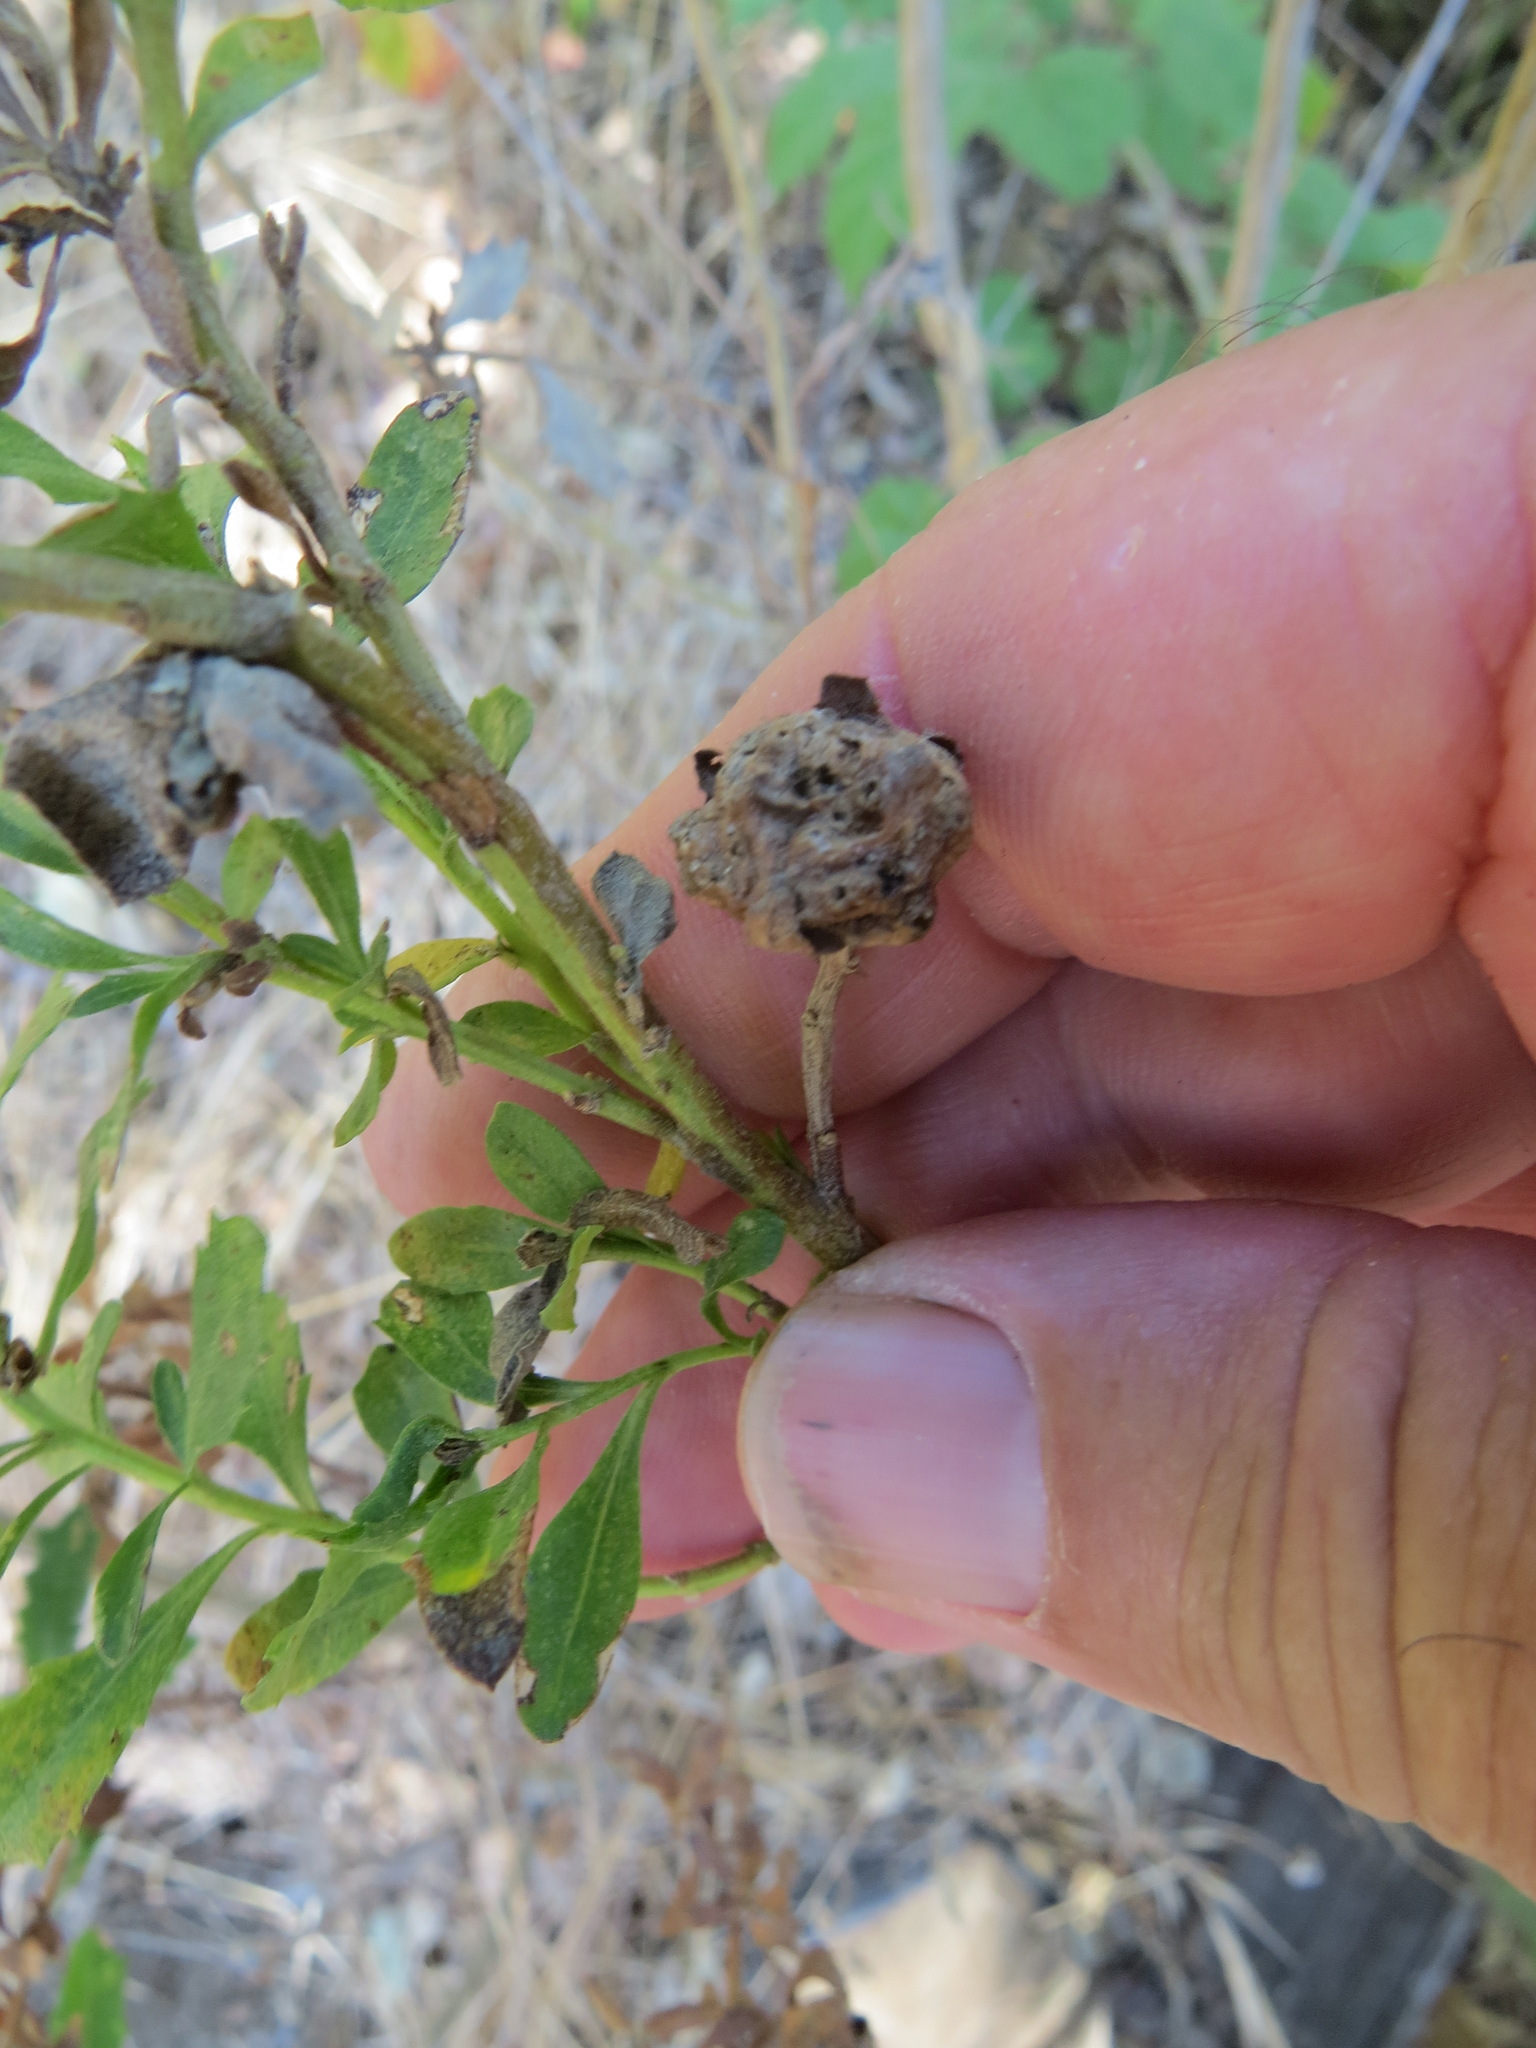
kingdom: Animalia
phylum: Arthropoda
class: Insecta
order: Diptera
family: Cecidomyiidae
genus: Rhopalomyia
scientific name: Rhopalomyia californica
